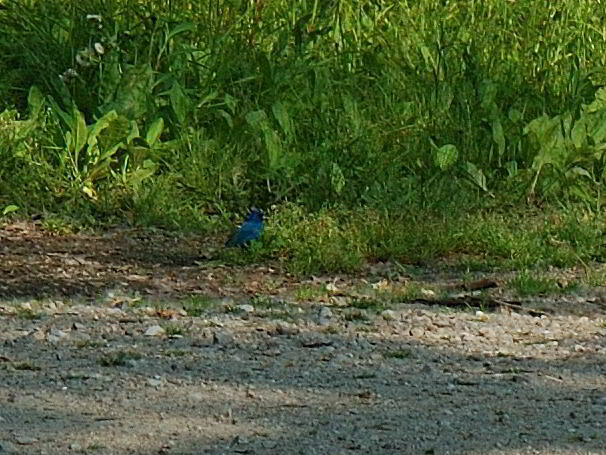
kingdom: Animalia
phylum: Chordata
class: Aves
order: Passeriformes
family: Cardinalidae
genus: Passerina
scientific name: Passerina cyanea
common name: Indigo bunting
